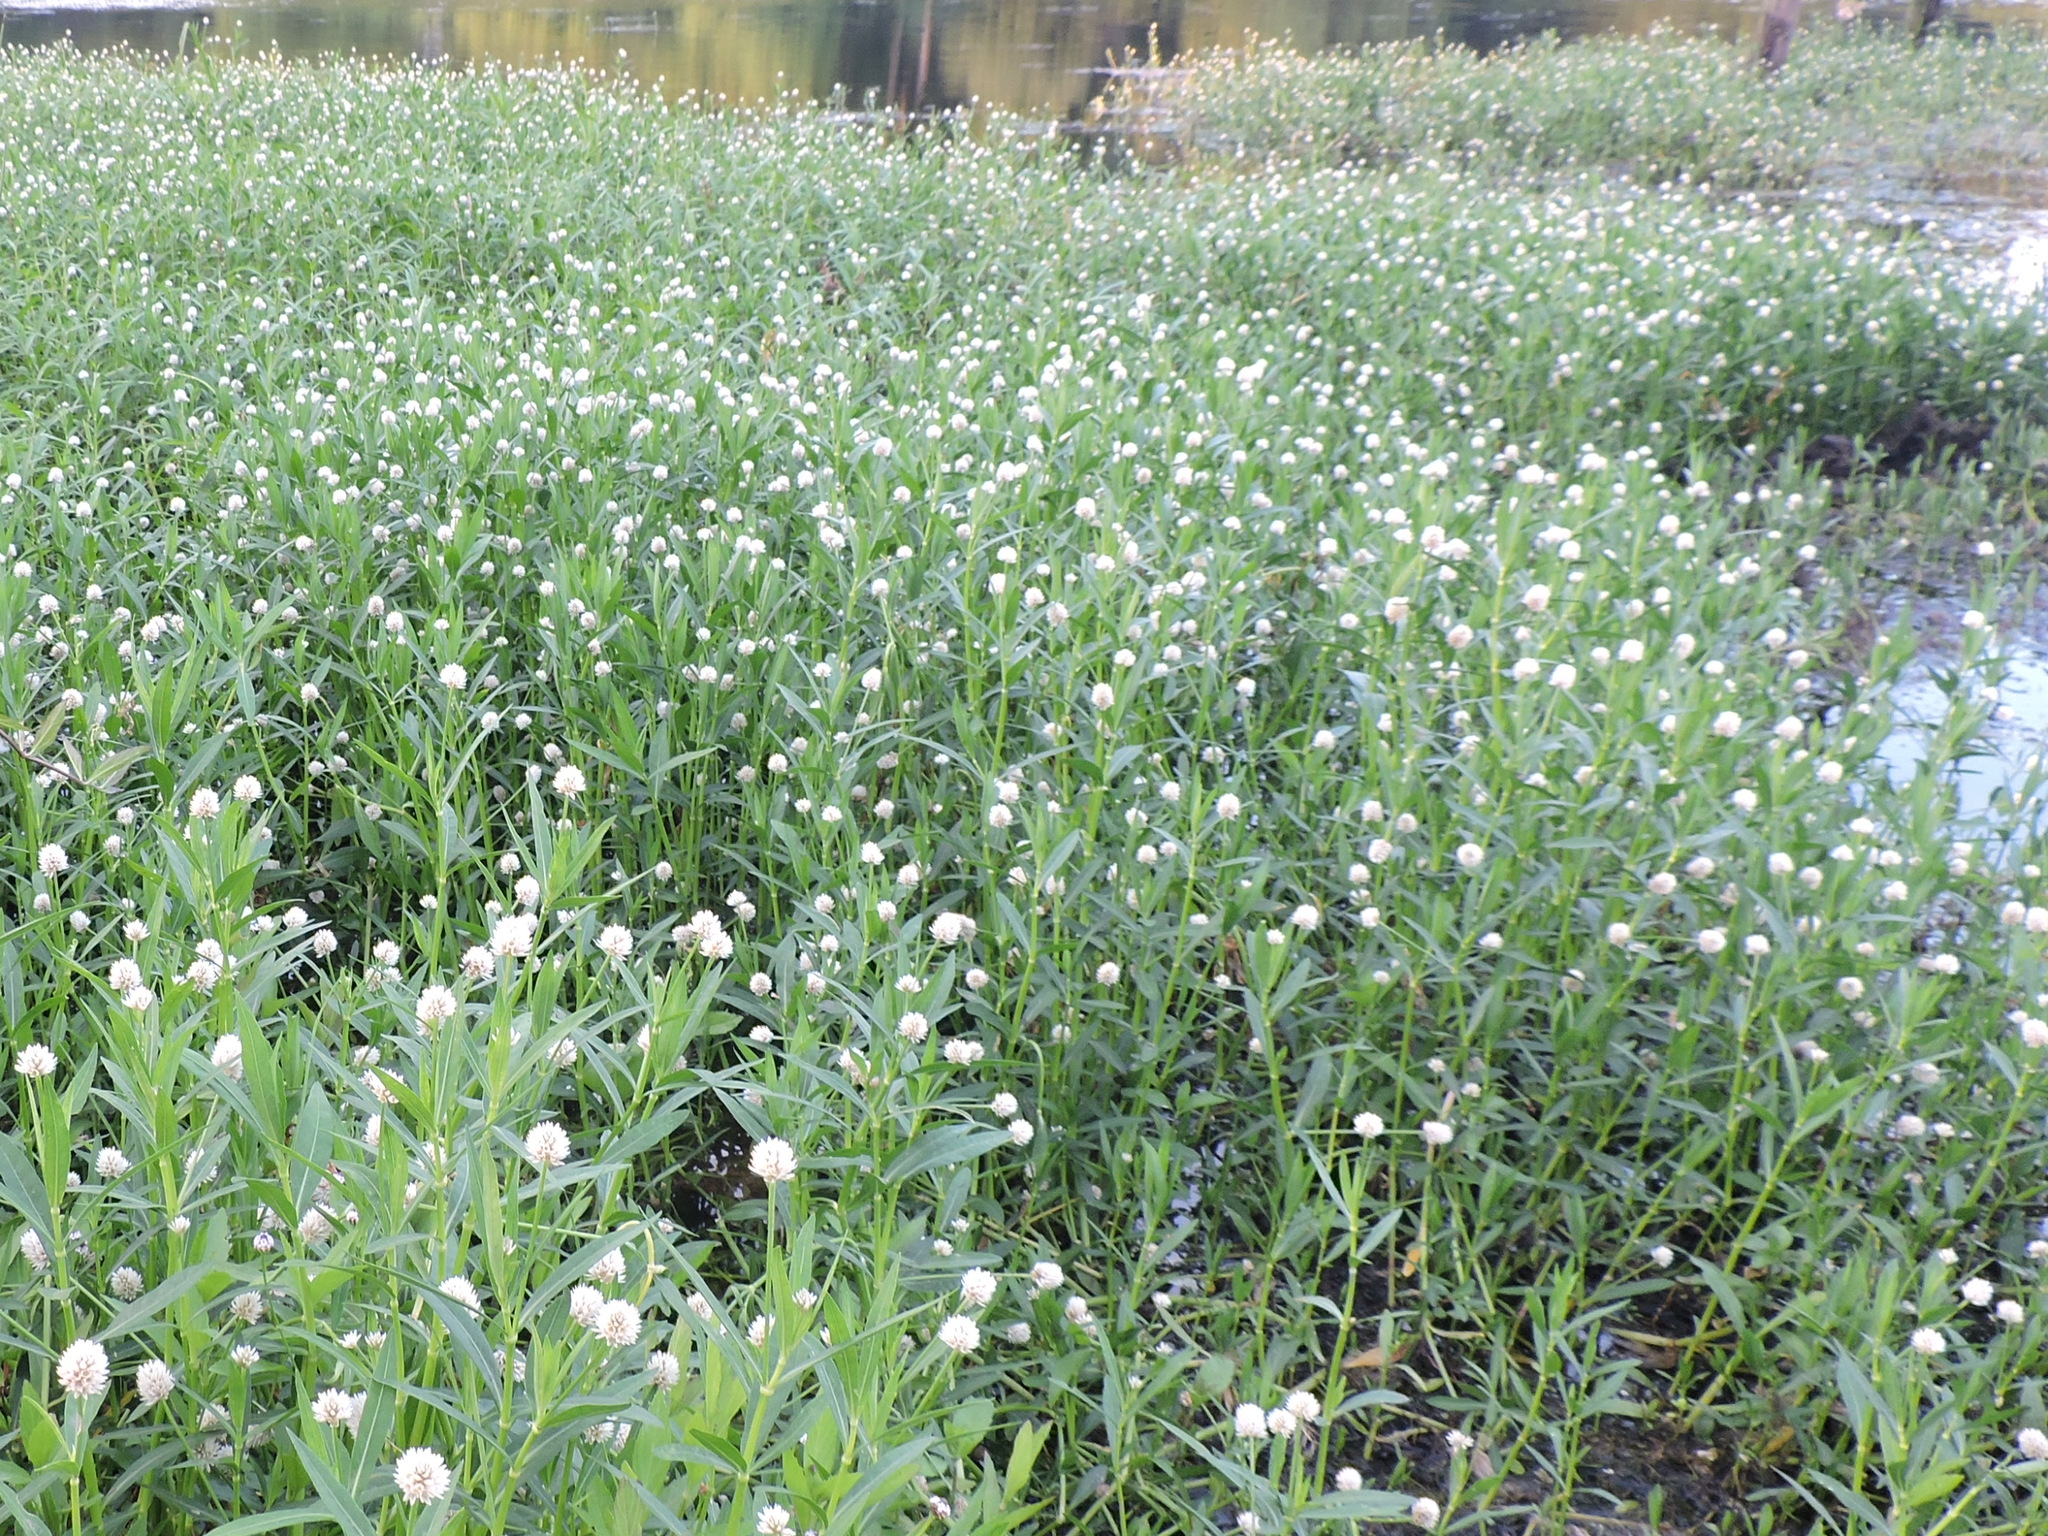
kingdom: Plantae
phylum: Tracheophyta
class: Magnoliopsida
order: Caryophyllales
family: Amaranthaceae
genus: Alternanthera
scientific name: Alternanthera philoxeroides
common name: Alligatorweed
